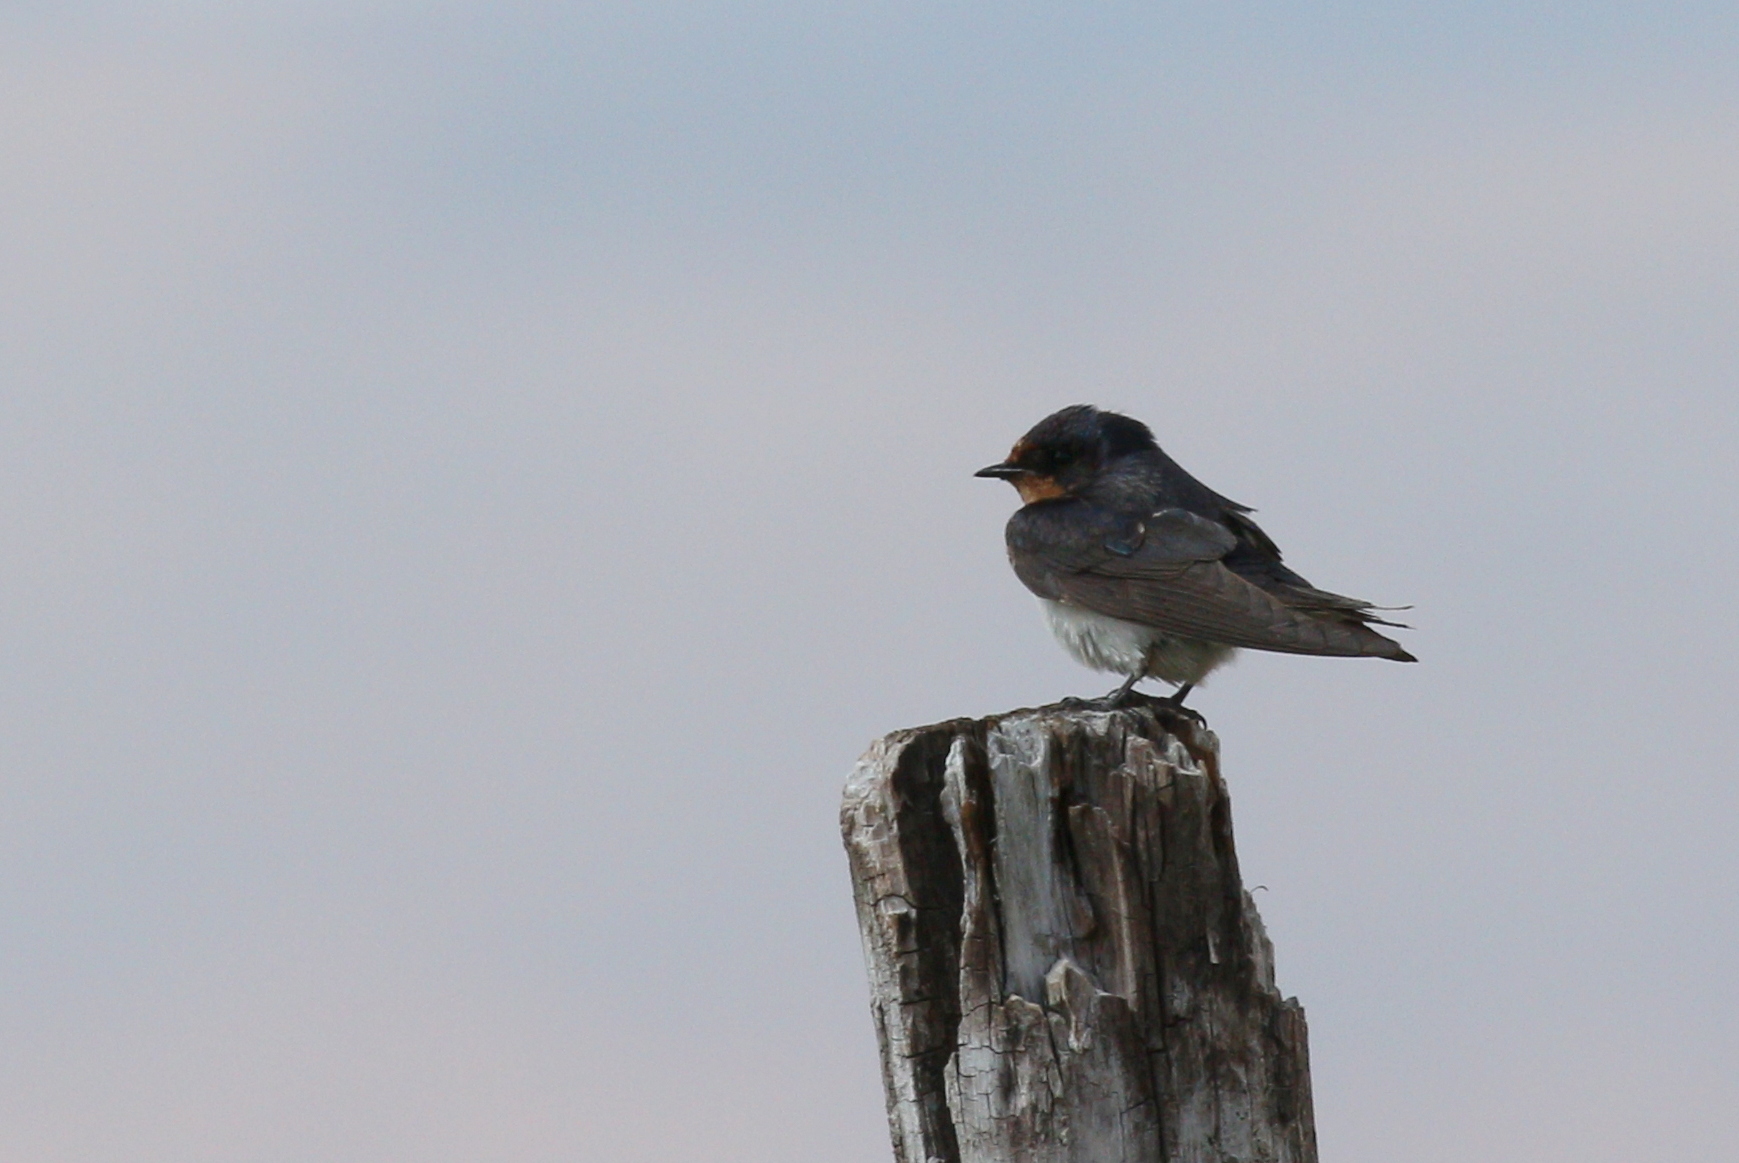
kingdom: Animalia
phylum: Chordata
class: Aves
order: Passeriformes
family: Hirundinidae
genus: Hirundo
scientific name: Hirundo rustica
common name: Barn swallow
